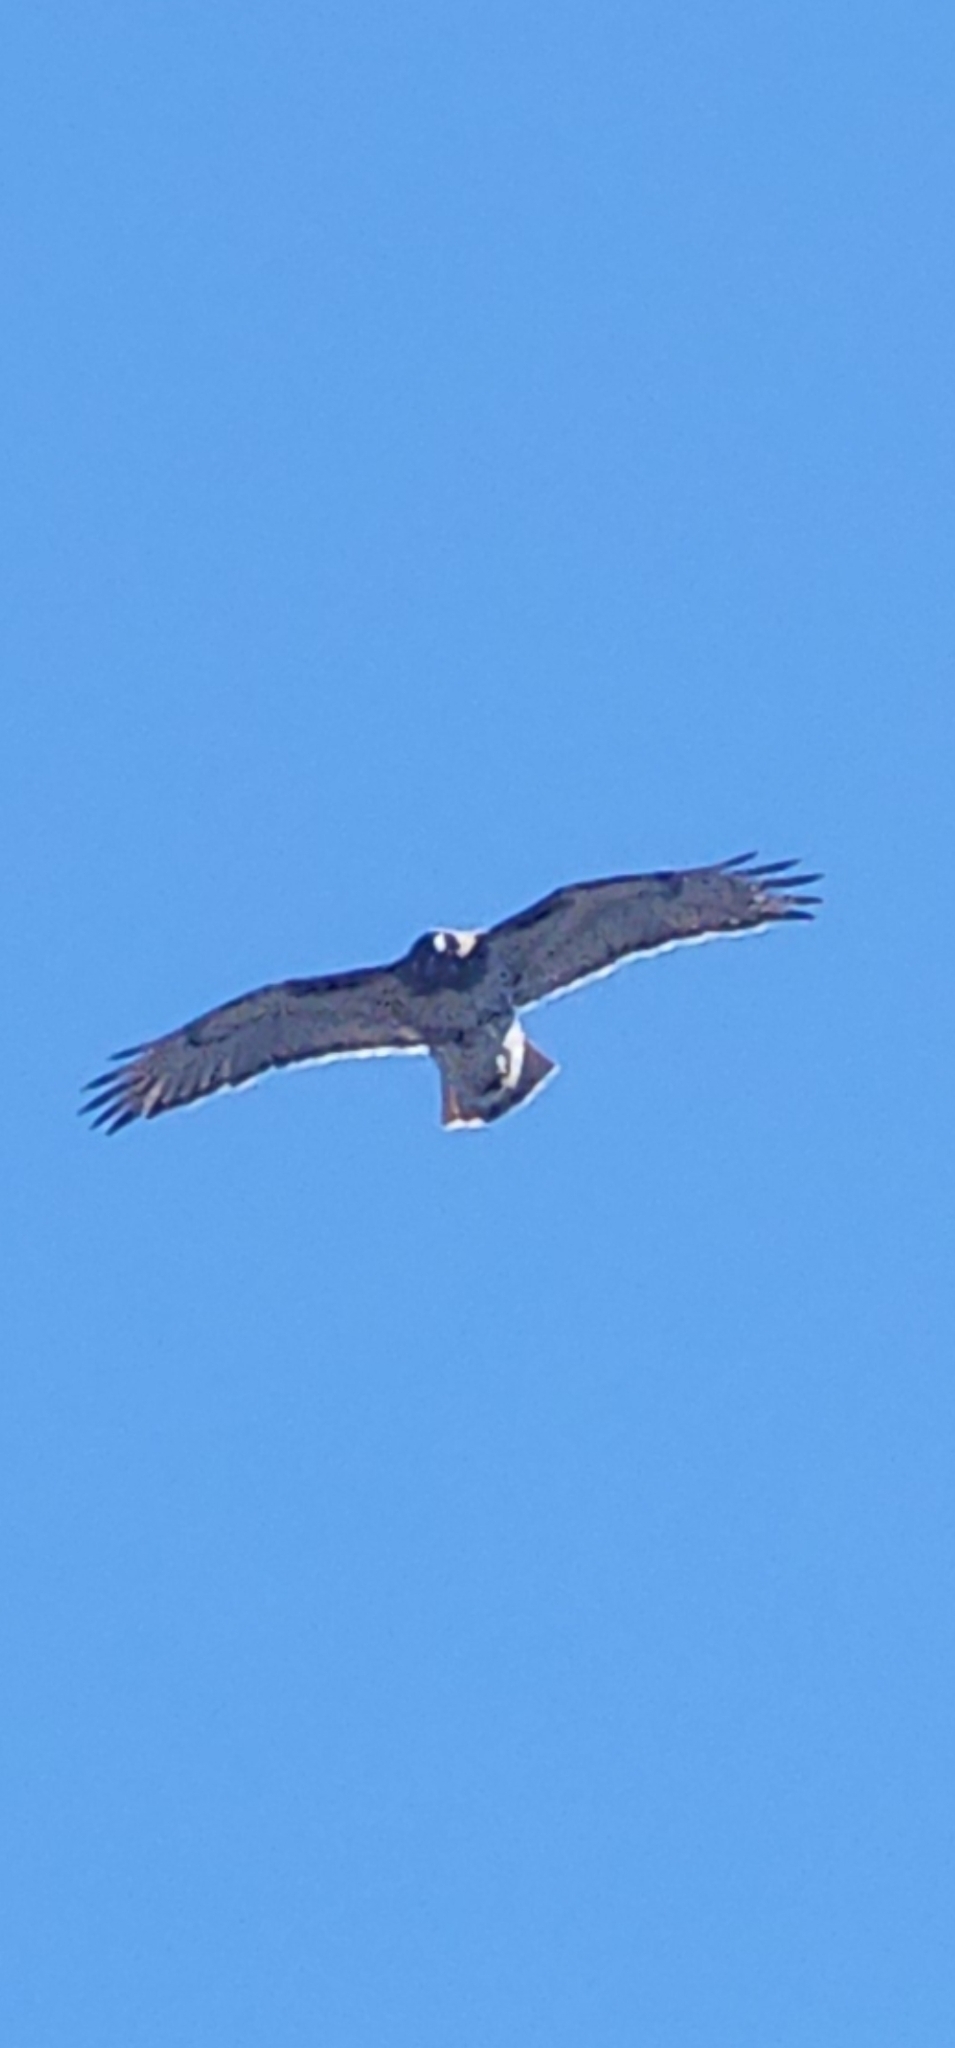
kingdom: Animalia
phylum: Chordata
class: Aves
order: Accipitriformes
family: Accipitridae
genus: Buteo
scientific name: Buteo jamaicensis
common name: Red-tailed hawk
